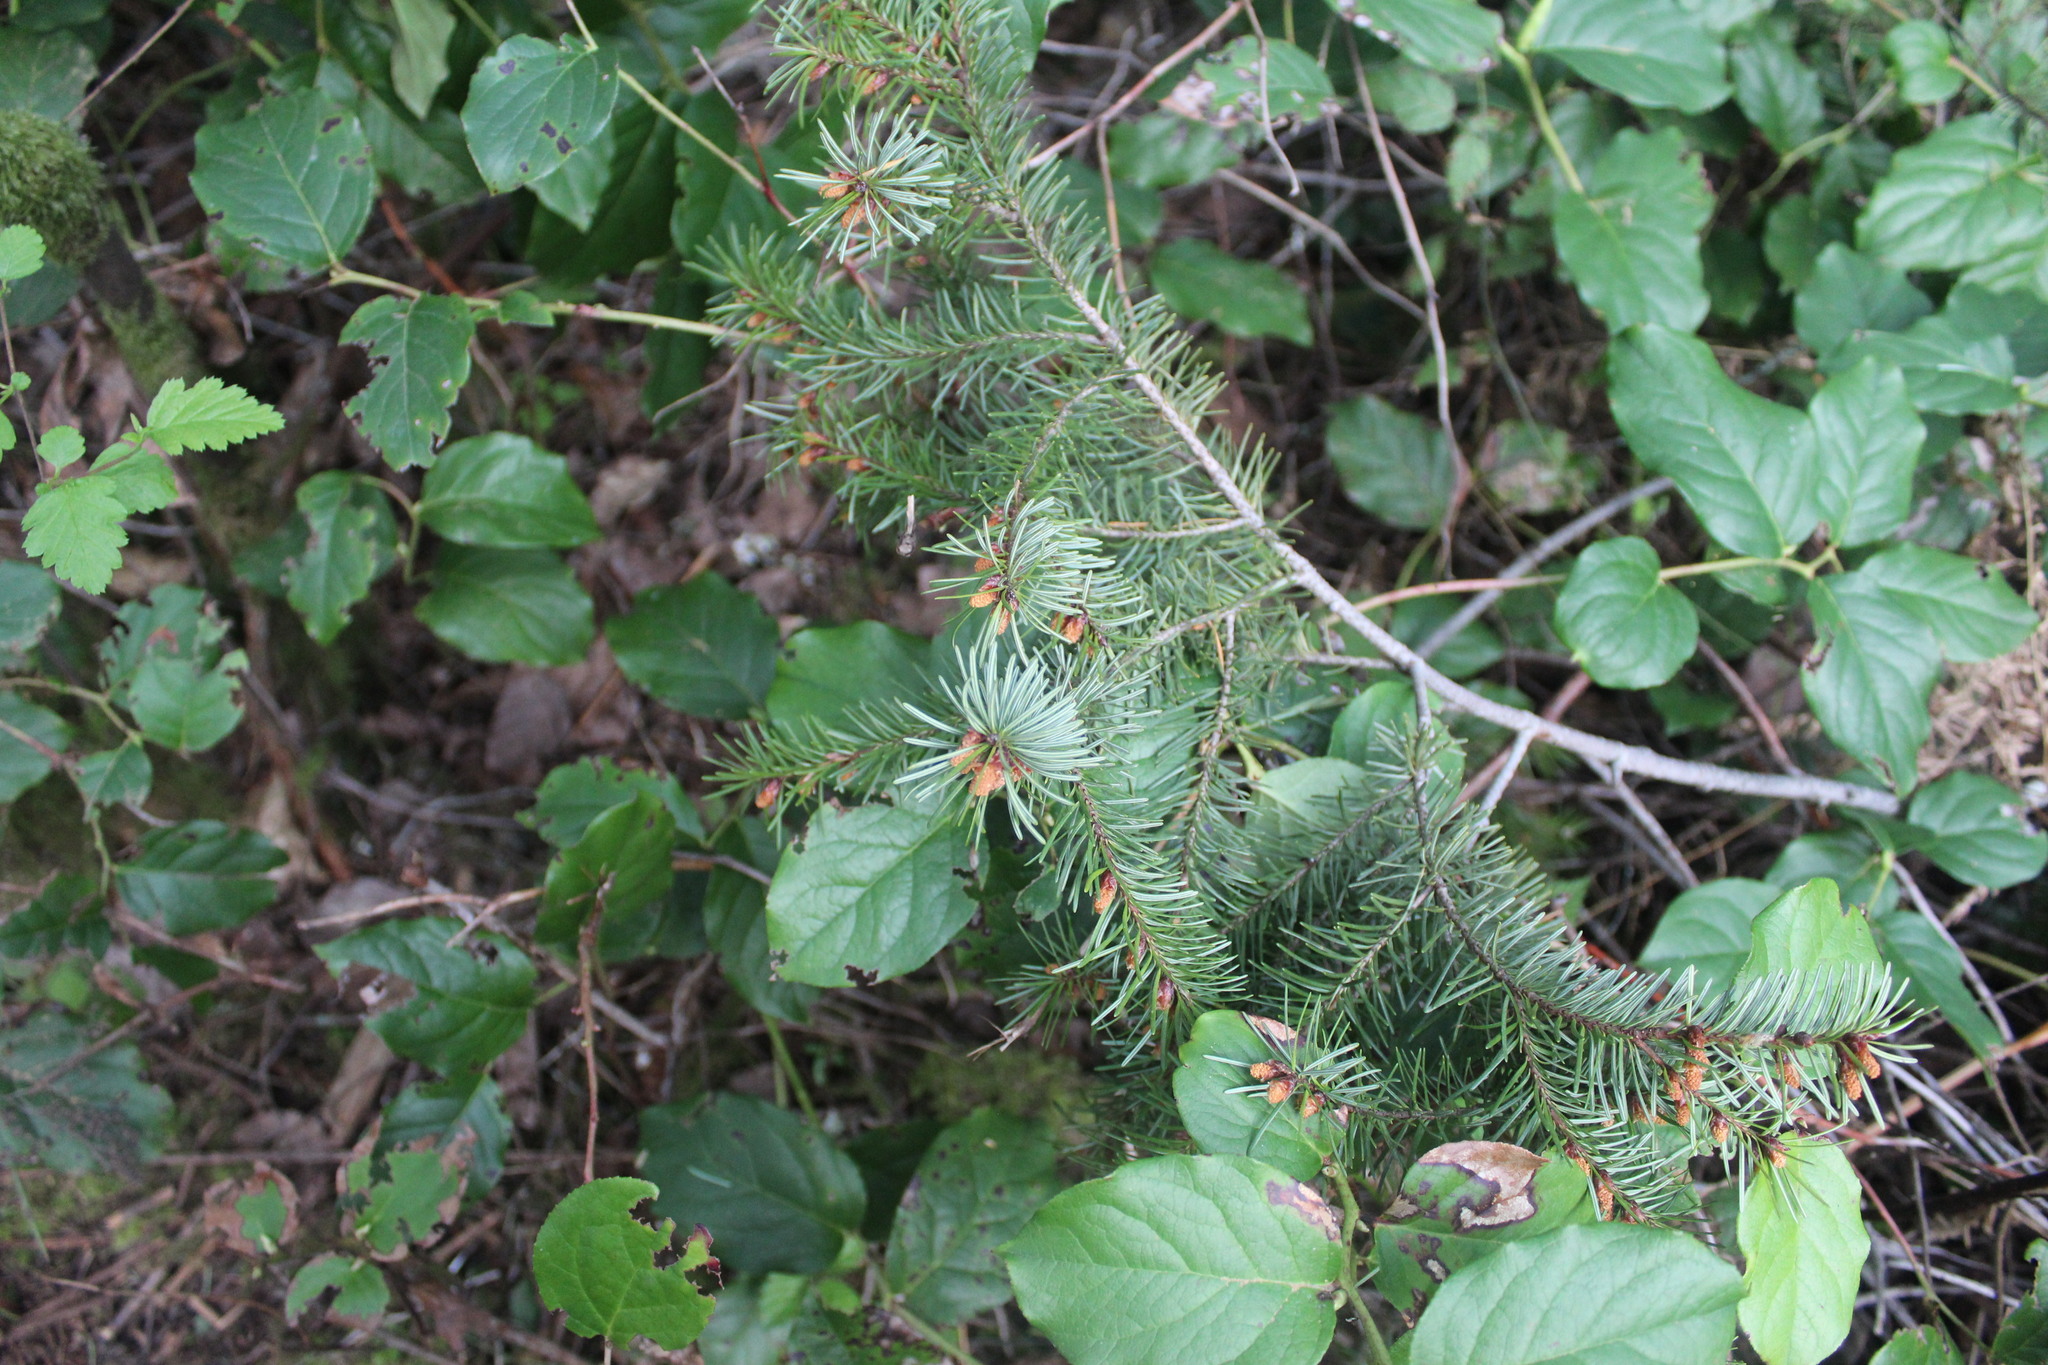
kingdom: Plantae
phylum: Tracheophyta
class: Pinopsida
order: Pinales
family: Pinaceae
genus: Pseudotsuga
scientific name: Pseudotsuga menziesii
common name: Douglas fir
